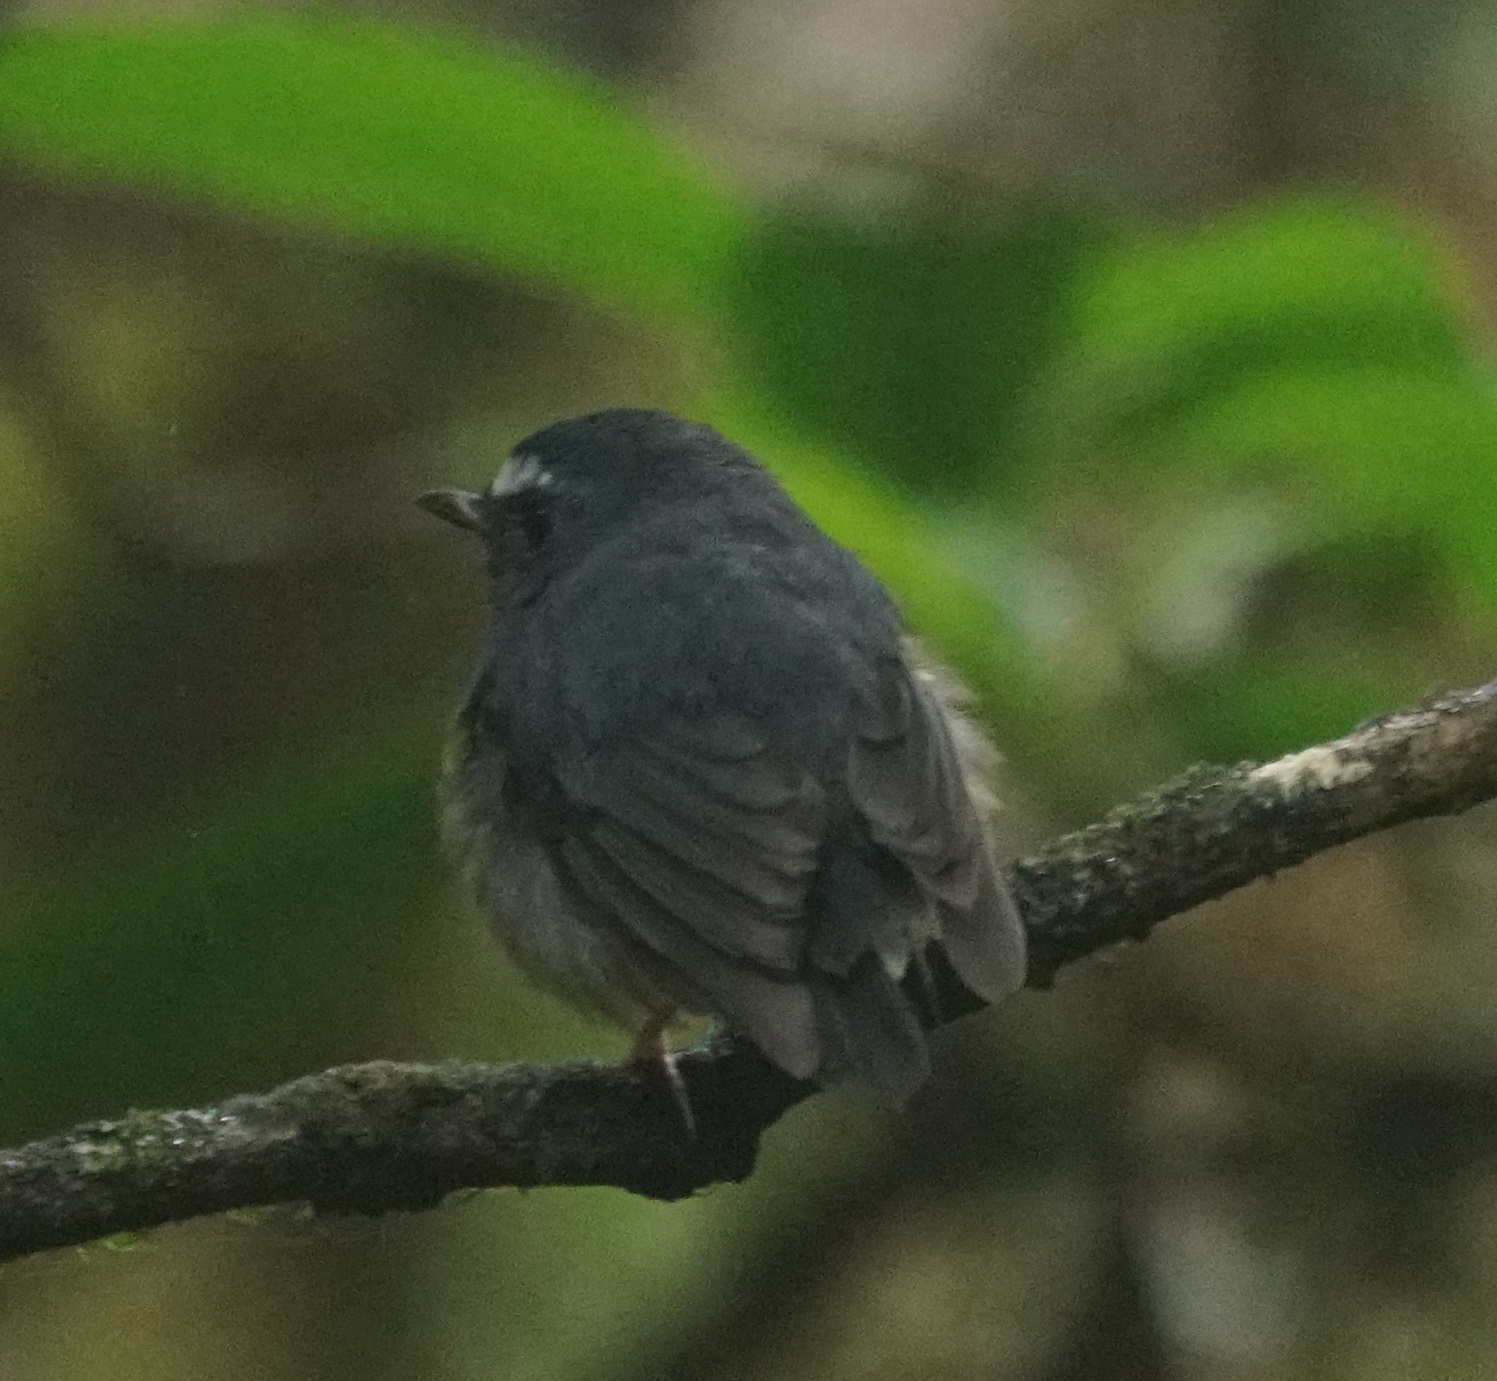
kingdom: Animalia
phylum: Chordata
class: Aves
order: Passeriformes
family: Muscicapidae
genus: Ficedula
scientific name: Ficedula hyperythra
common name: Snowy-browed flycatcher
